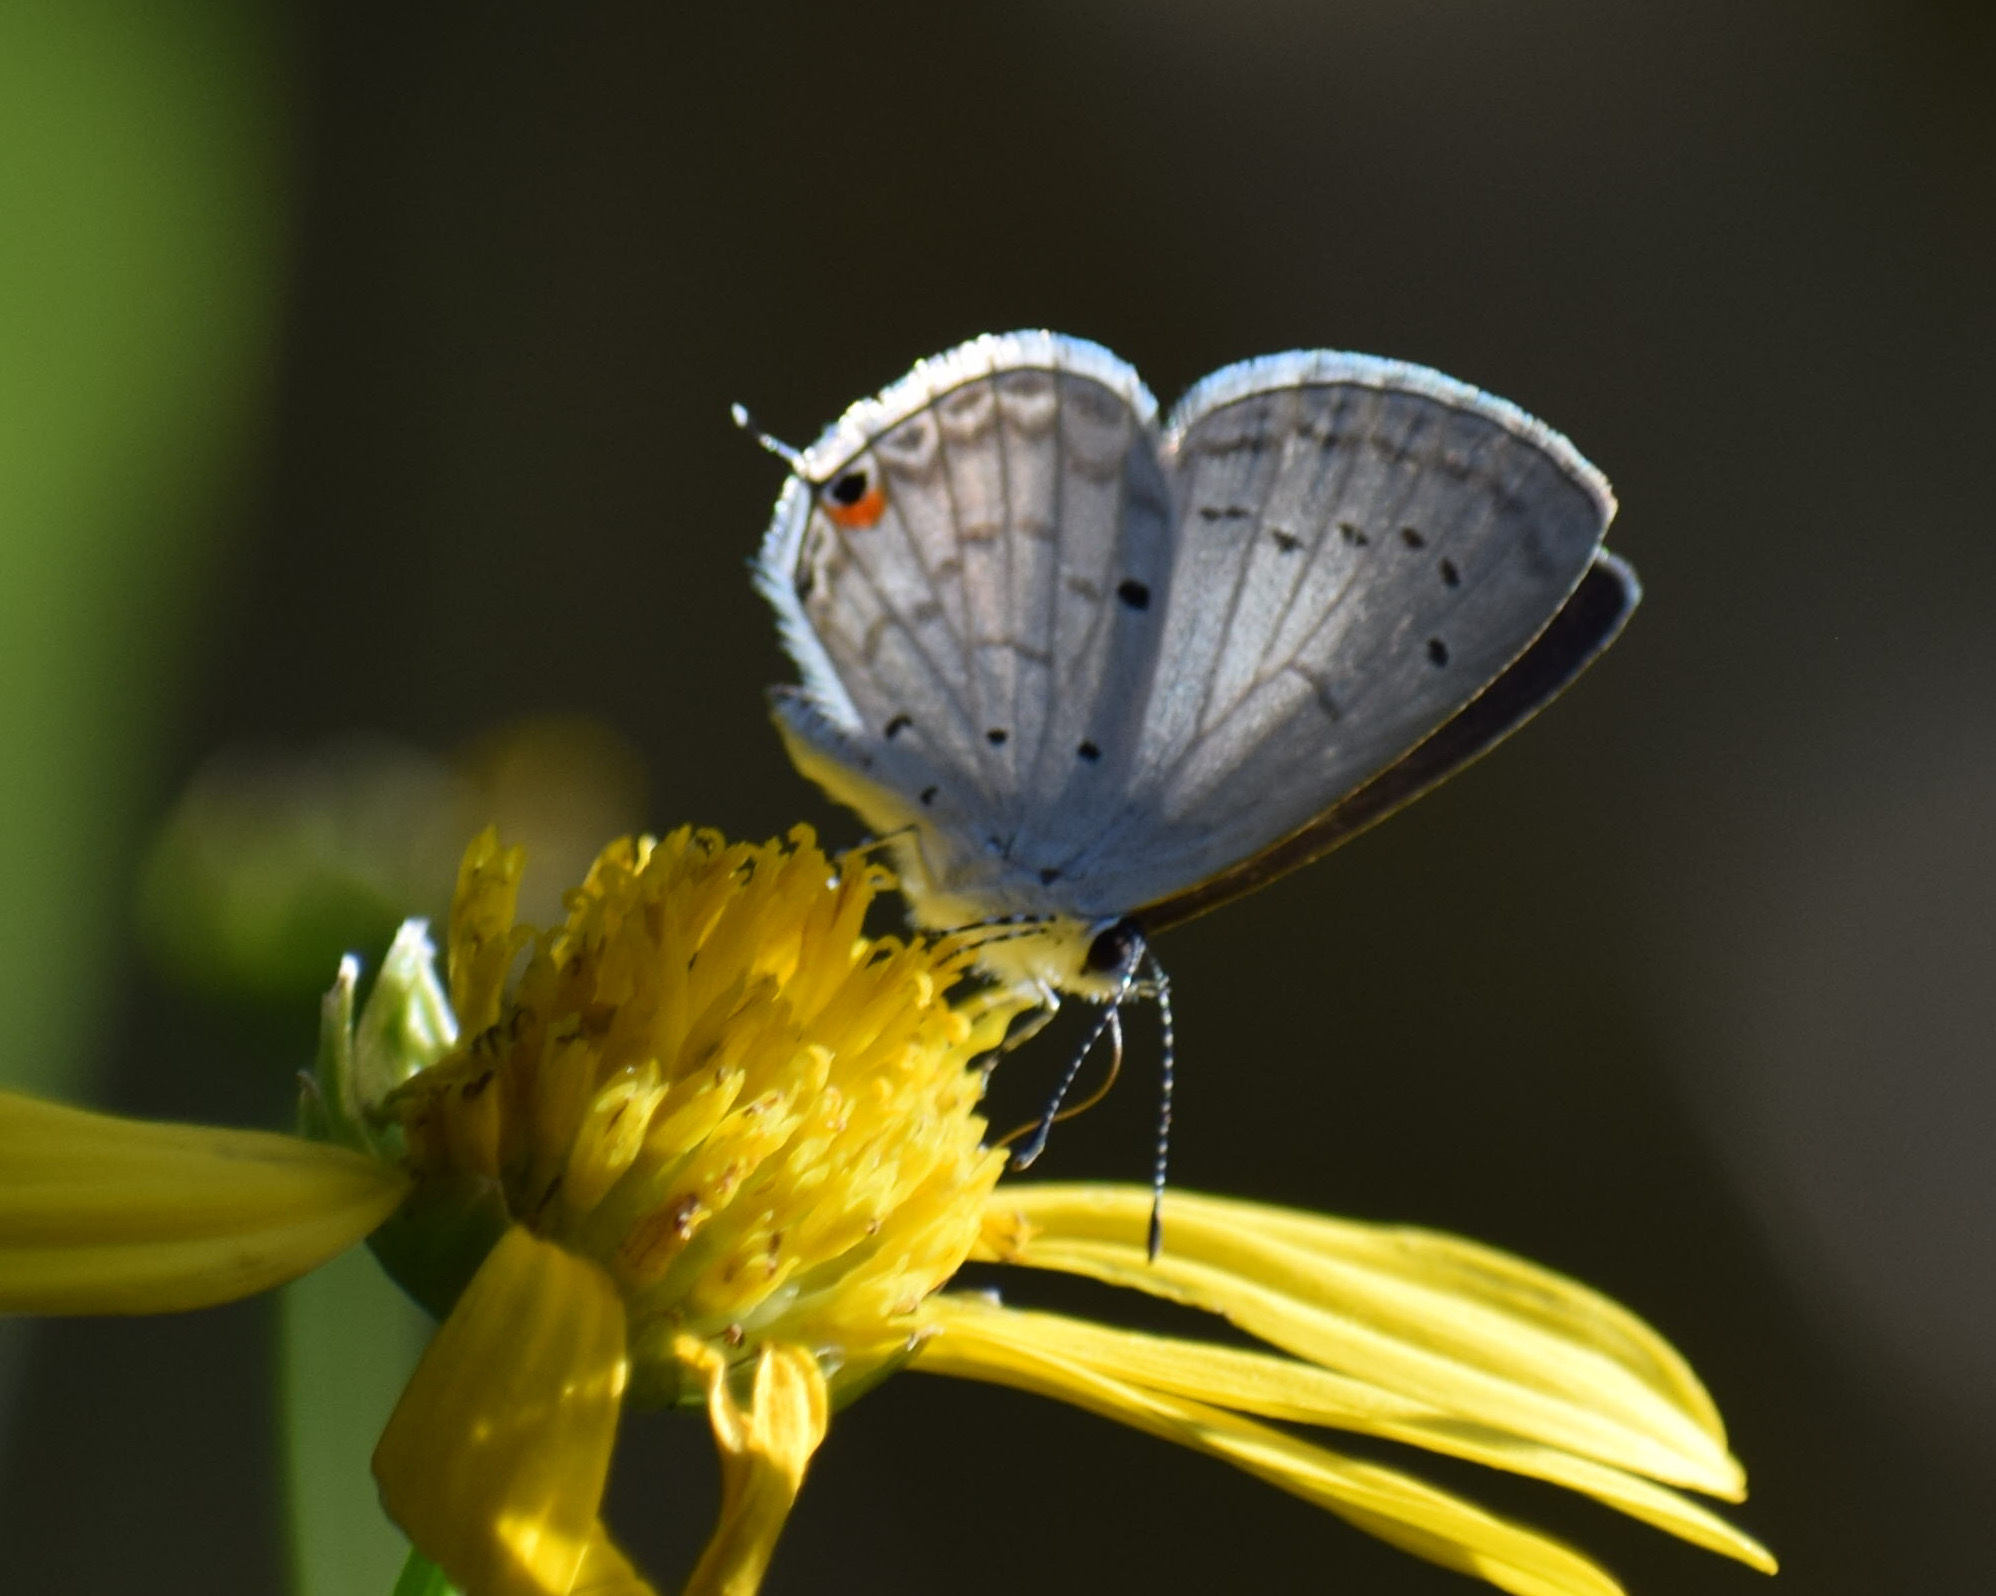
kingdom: Animalia
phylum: Arthropoda
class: Insecta
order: Lepidoptera
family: Lycaenidae
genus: Eicochrysops
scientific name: Eicochrysops hippocrates
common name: White-tipped blue
